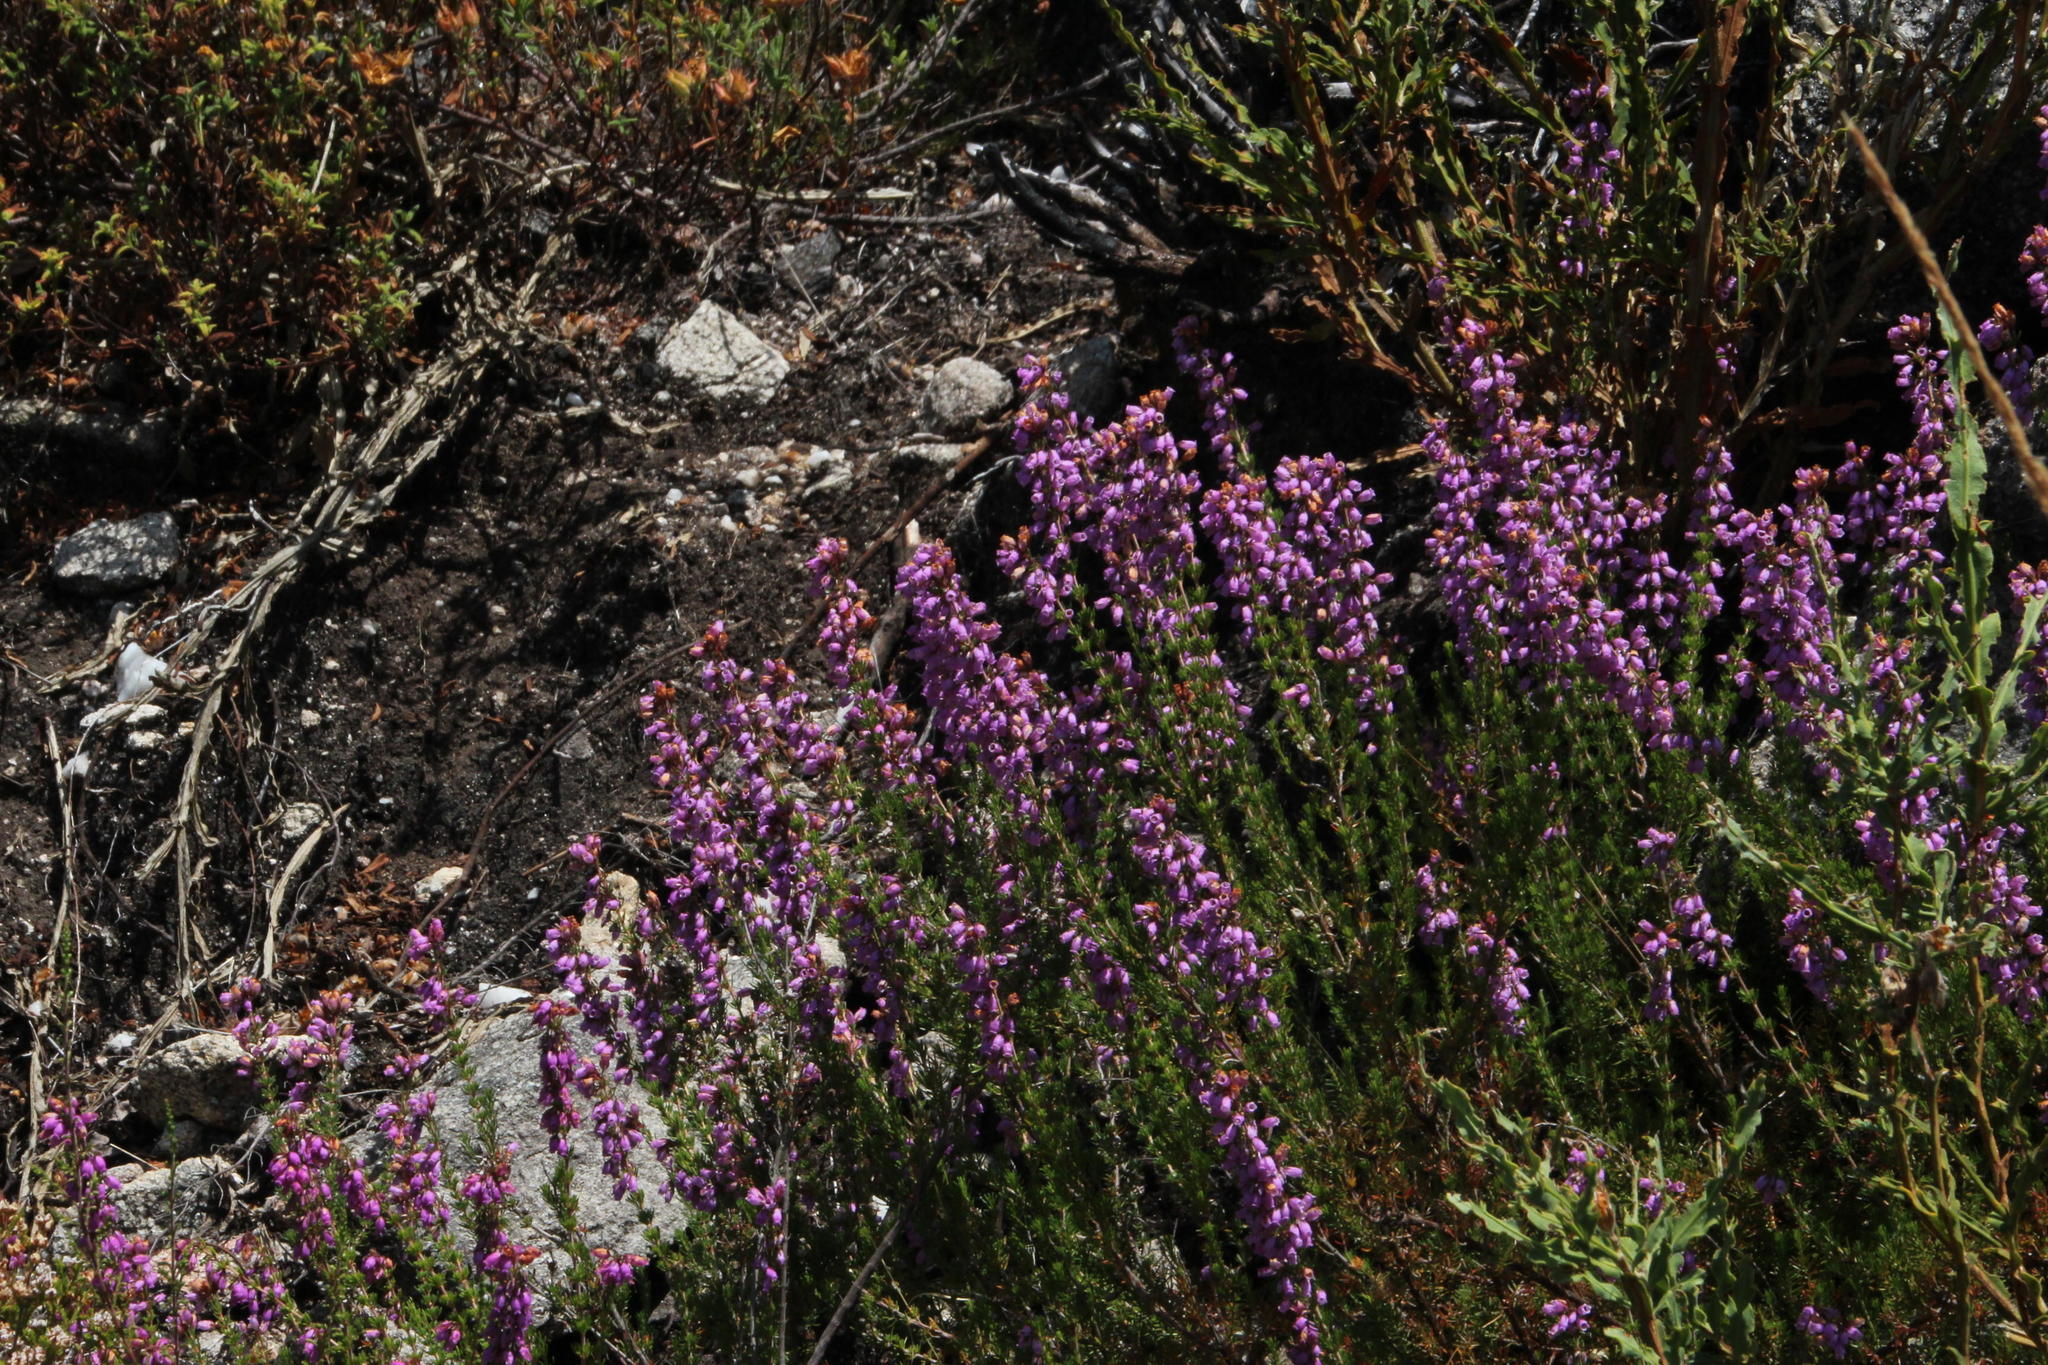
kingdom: Plantae
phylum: Tracheophyta
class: Magnoliopsida
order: Ericales
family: Ericaceae
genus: Erica
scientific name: Erica cinerea
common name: Bell heather
